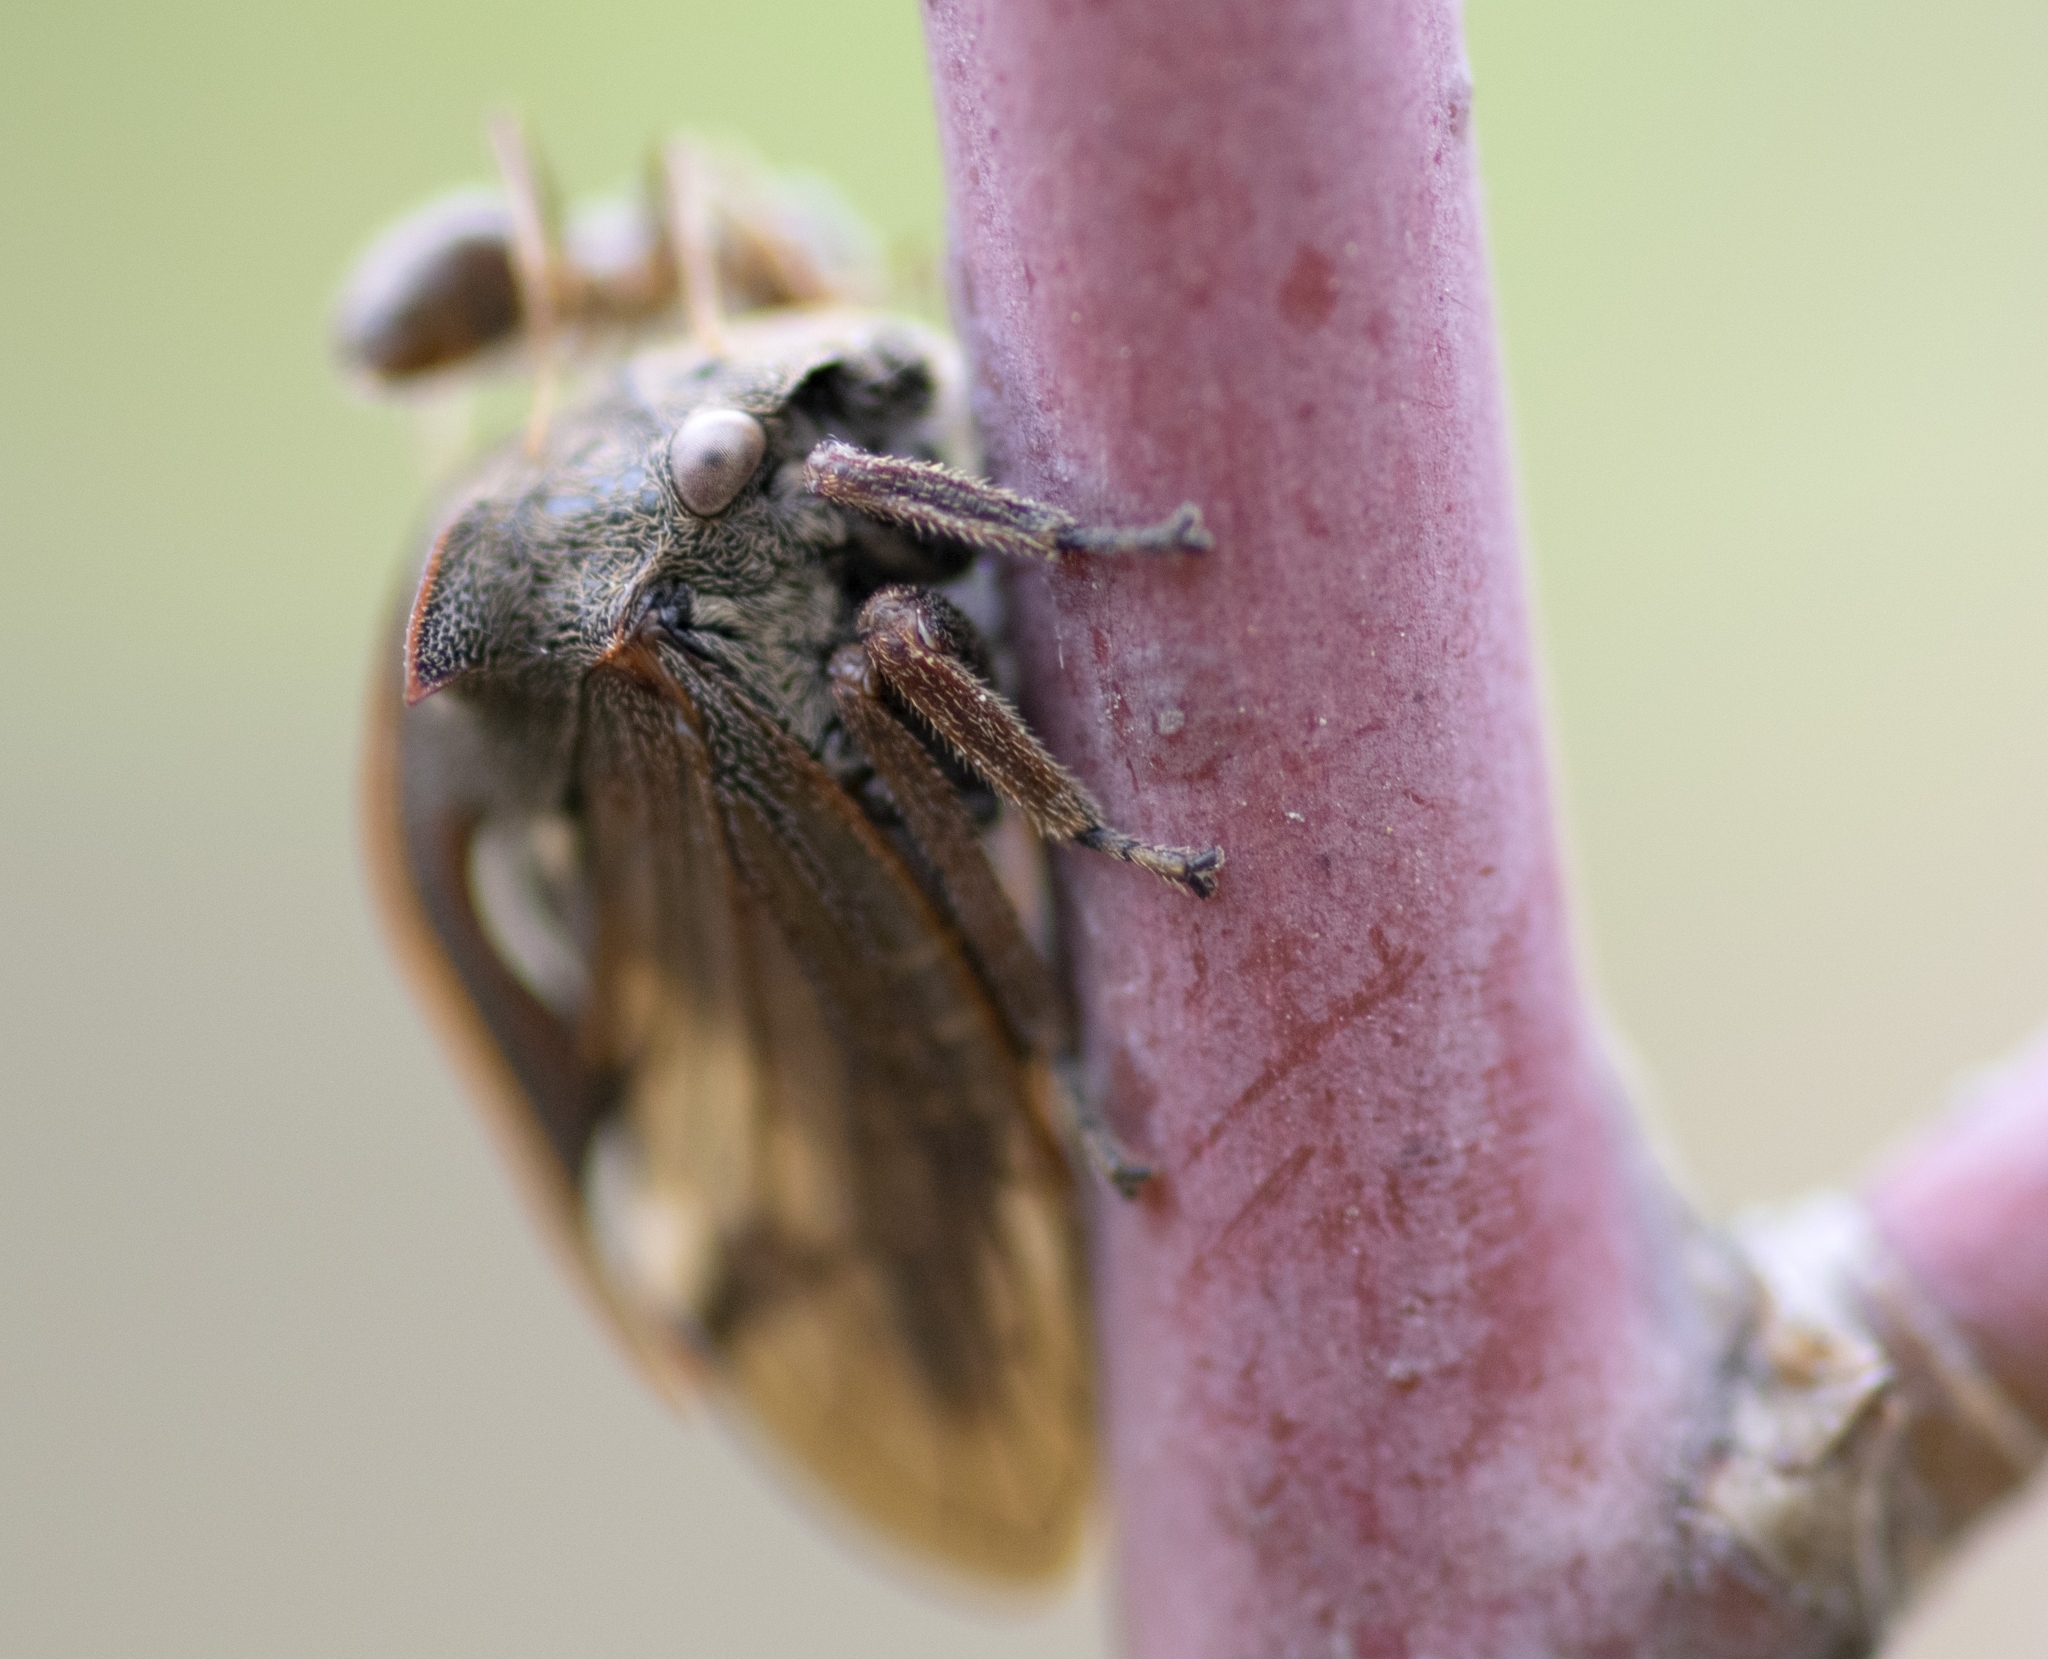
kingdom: Animalia
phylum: Arthropoda
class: Insecta
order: Hemiptera
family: Membracidae
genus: Centrotus
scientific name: Centrotus cornuta
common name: Treehopper
